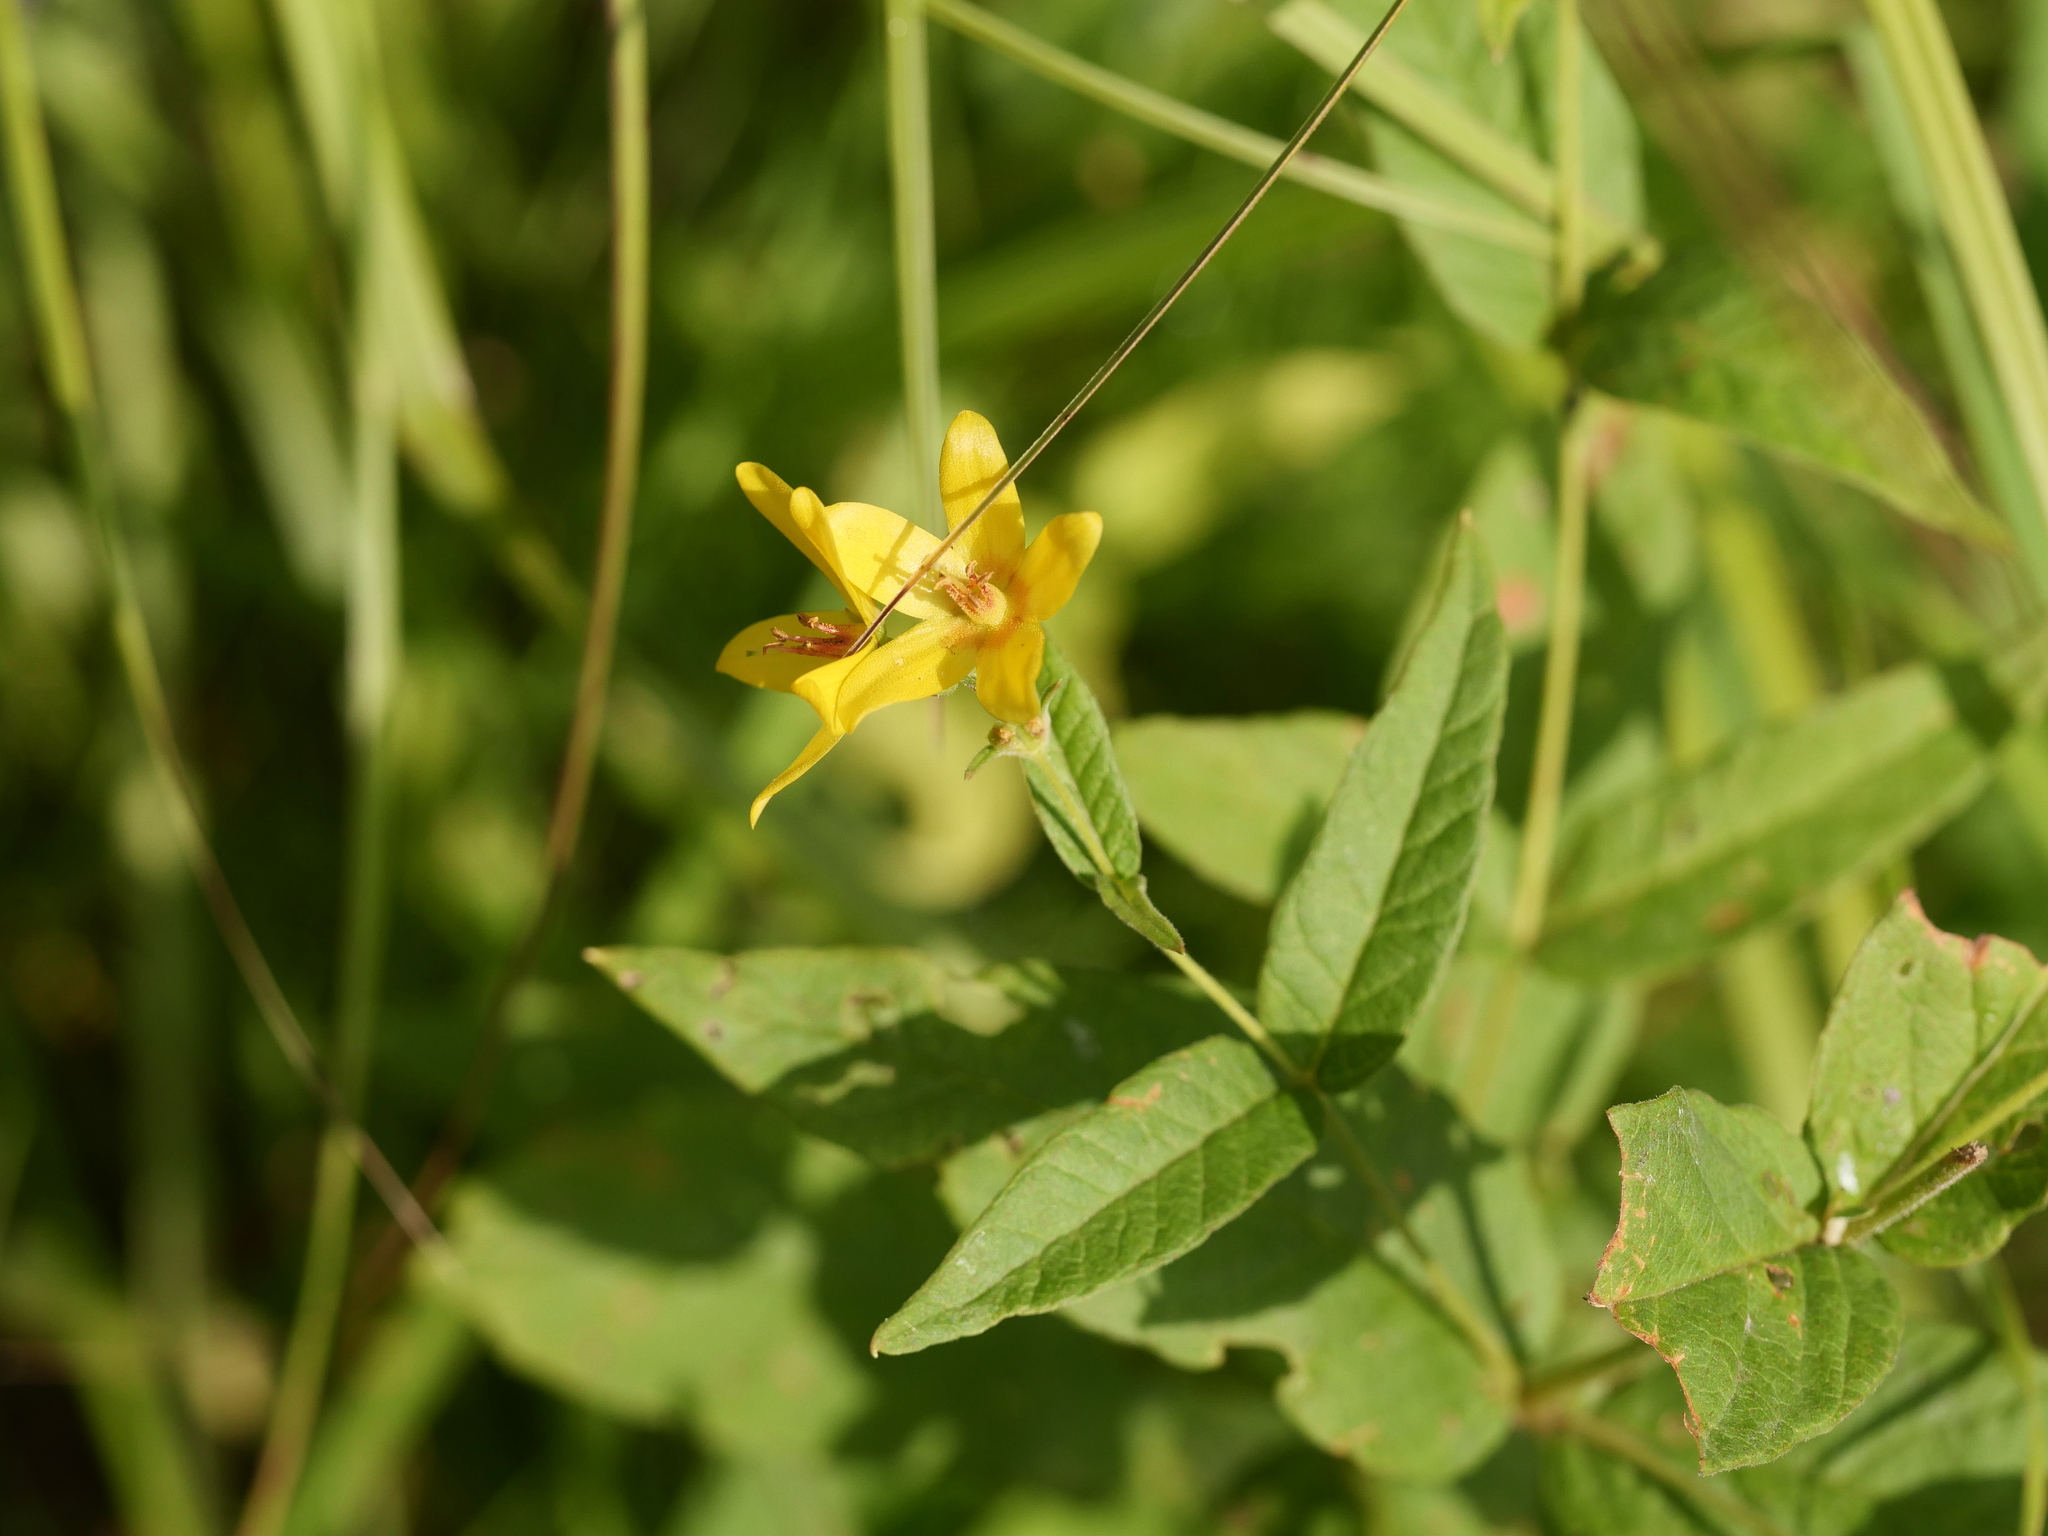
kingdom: Plantae
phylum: Tracheophyta
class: Magnoliopsida
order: Ericales
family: Primulaceae
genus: Lysimachia
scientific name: Lysimachia vulgaris
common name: Yellow loosestrife
